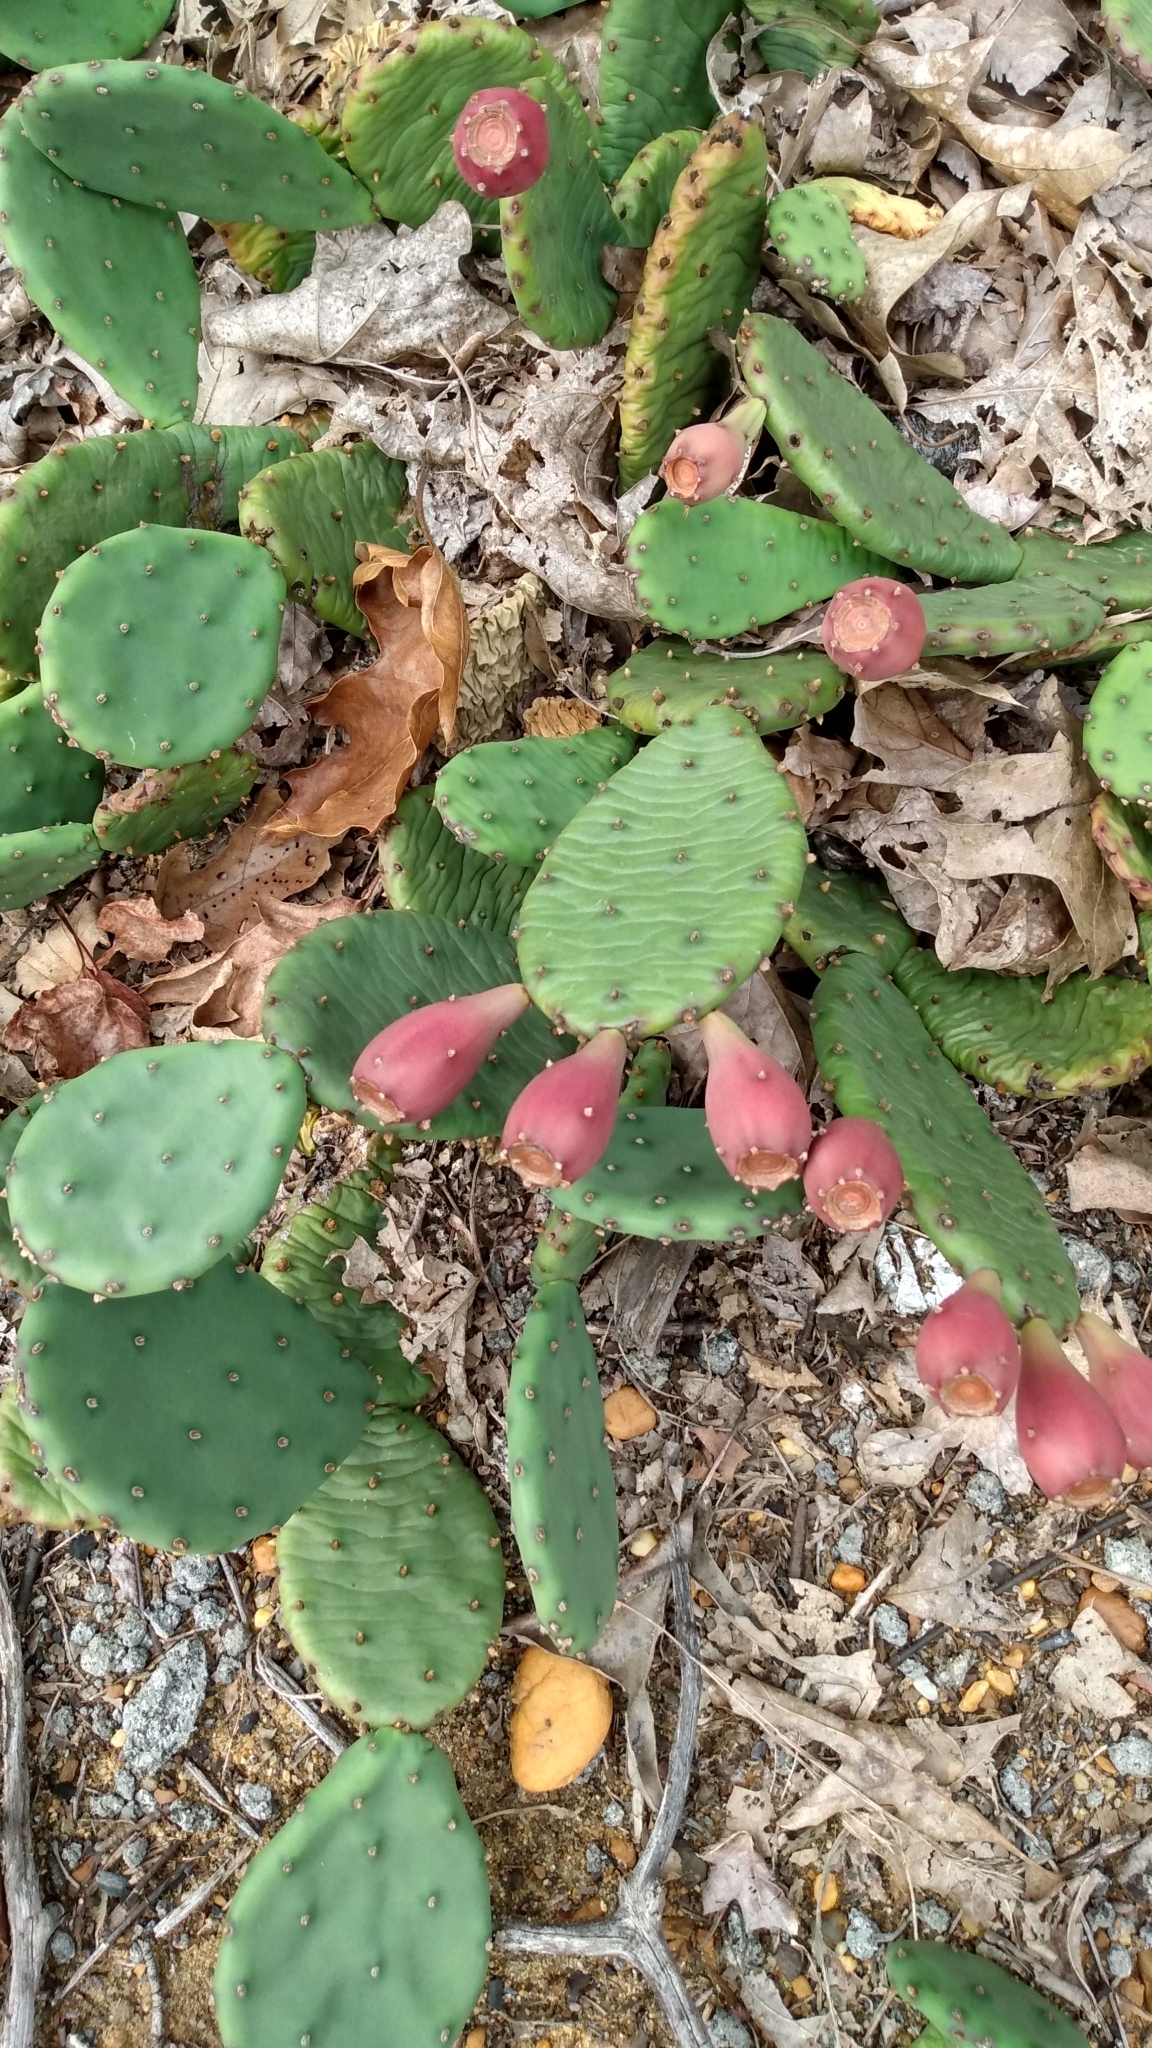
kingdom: Plantae
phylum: Tracheophyta
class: Magnoliopsida
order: Caryophyllales
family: Cactaceae
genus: Opuntia
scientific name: Opuntia humifusa
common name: Eastern prickly-pear
